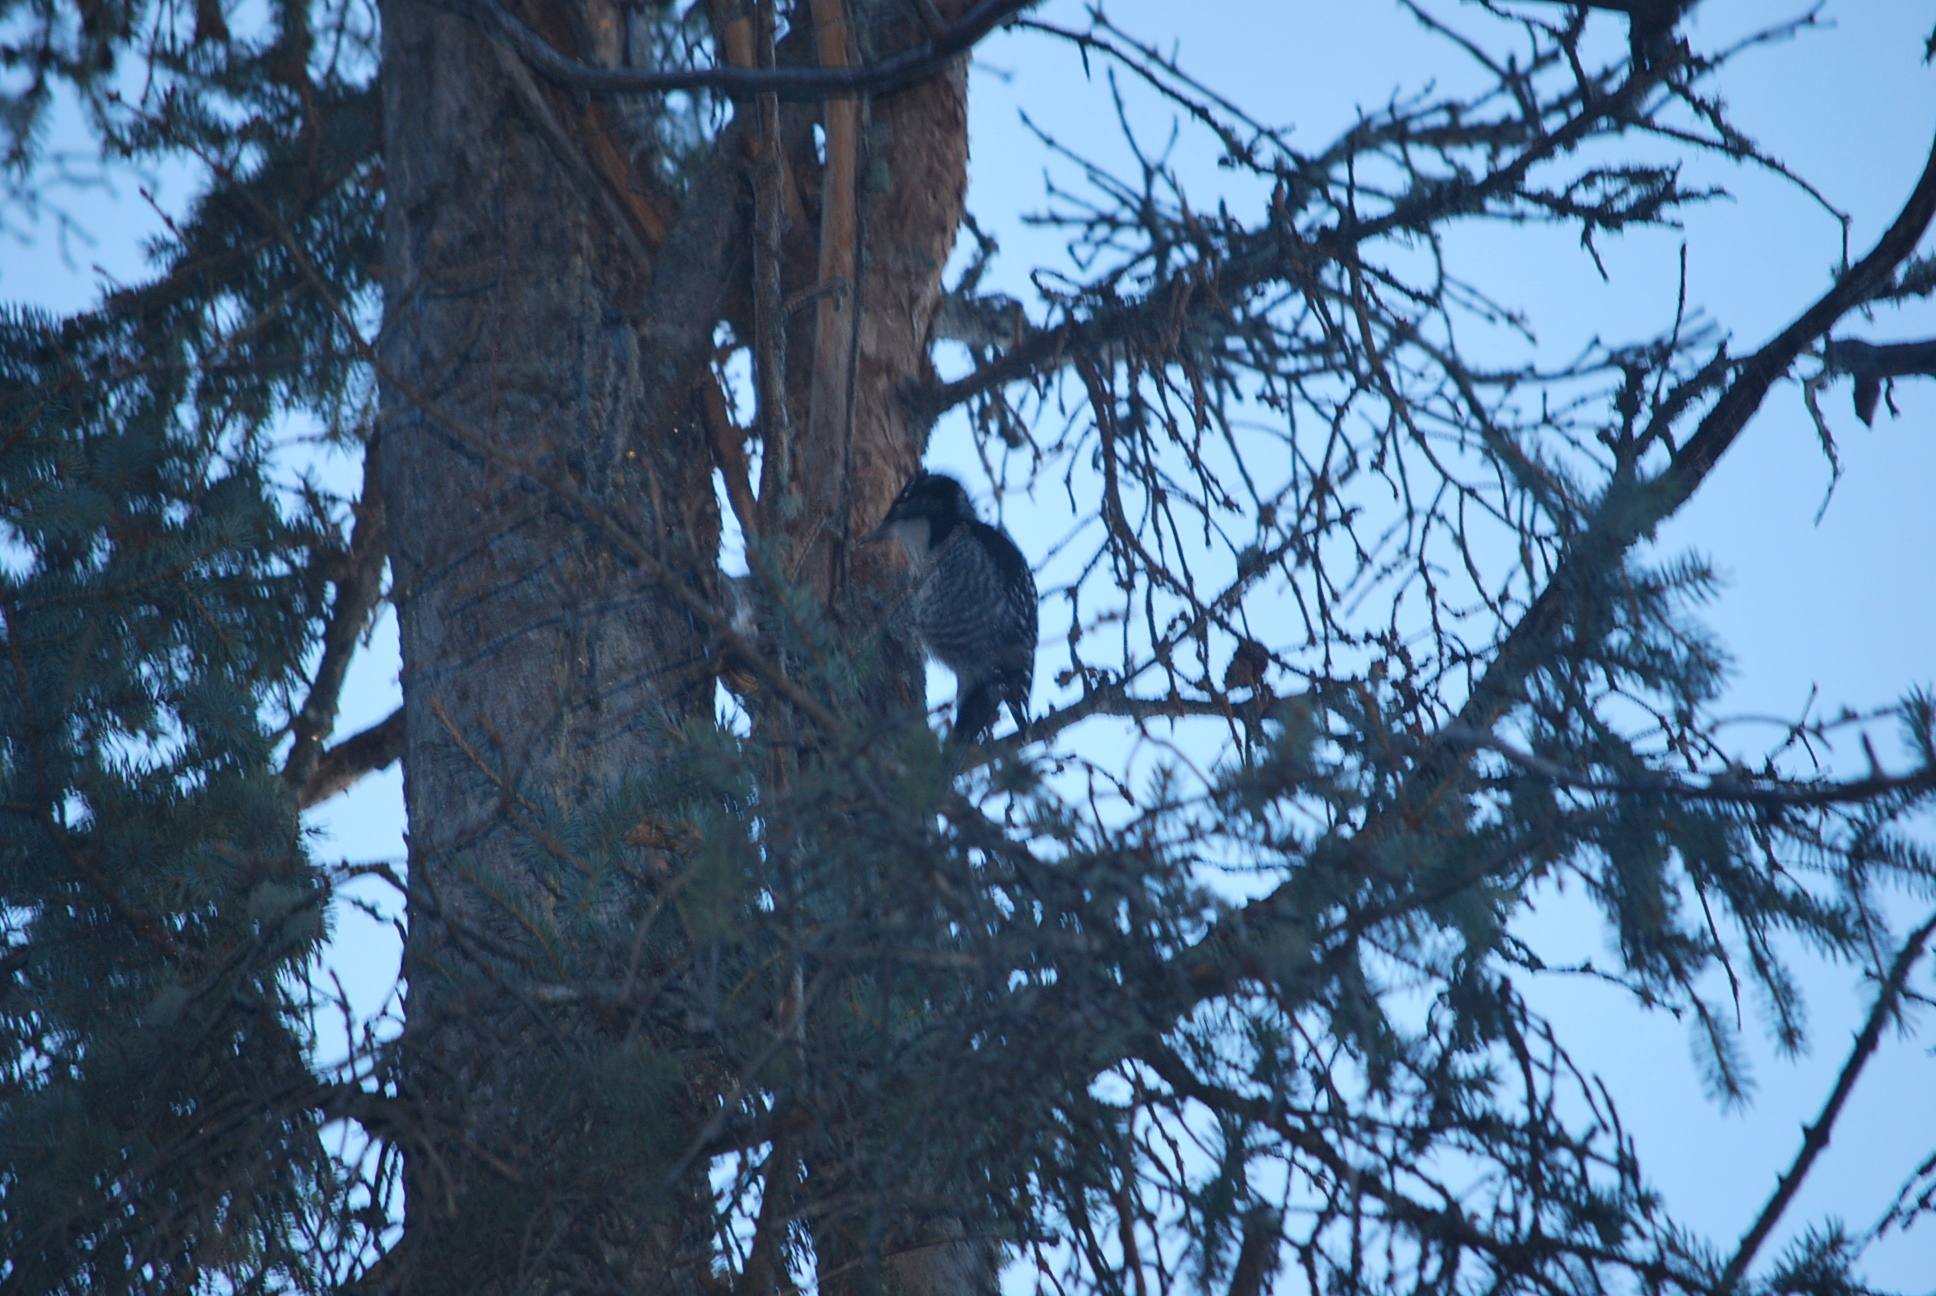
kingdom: Animalia
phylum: Chordata
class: Aves
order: Piciformes
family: Picidae
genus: Picoides
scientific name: Picoides dorsalis
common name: American three-toed woodpecker
